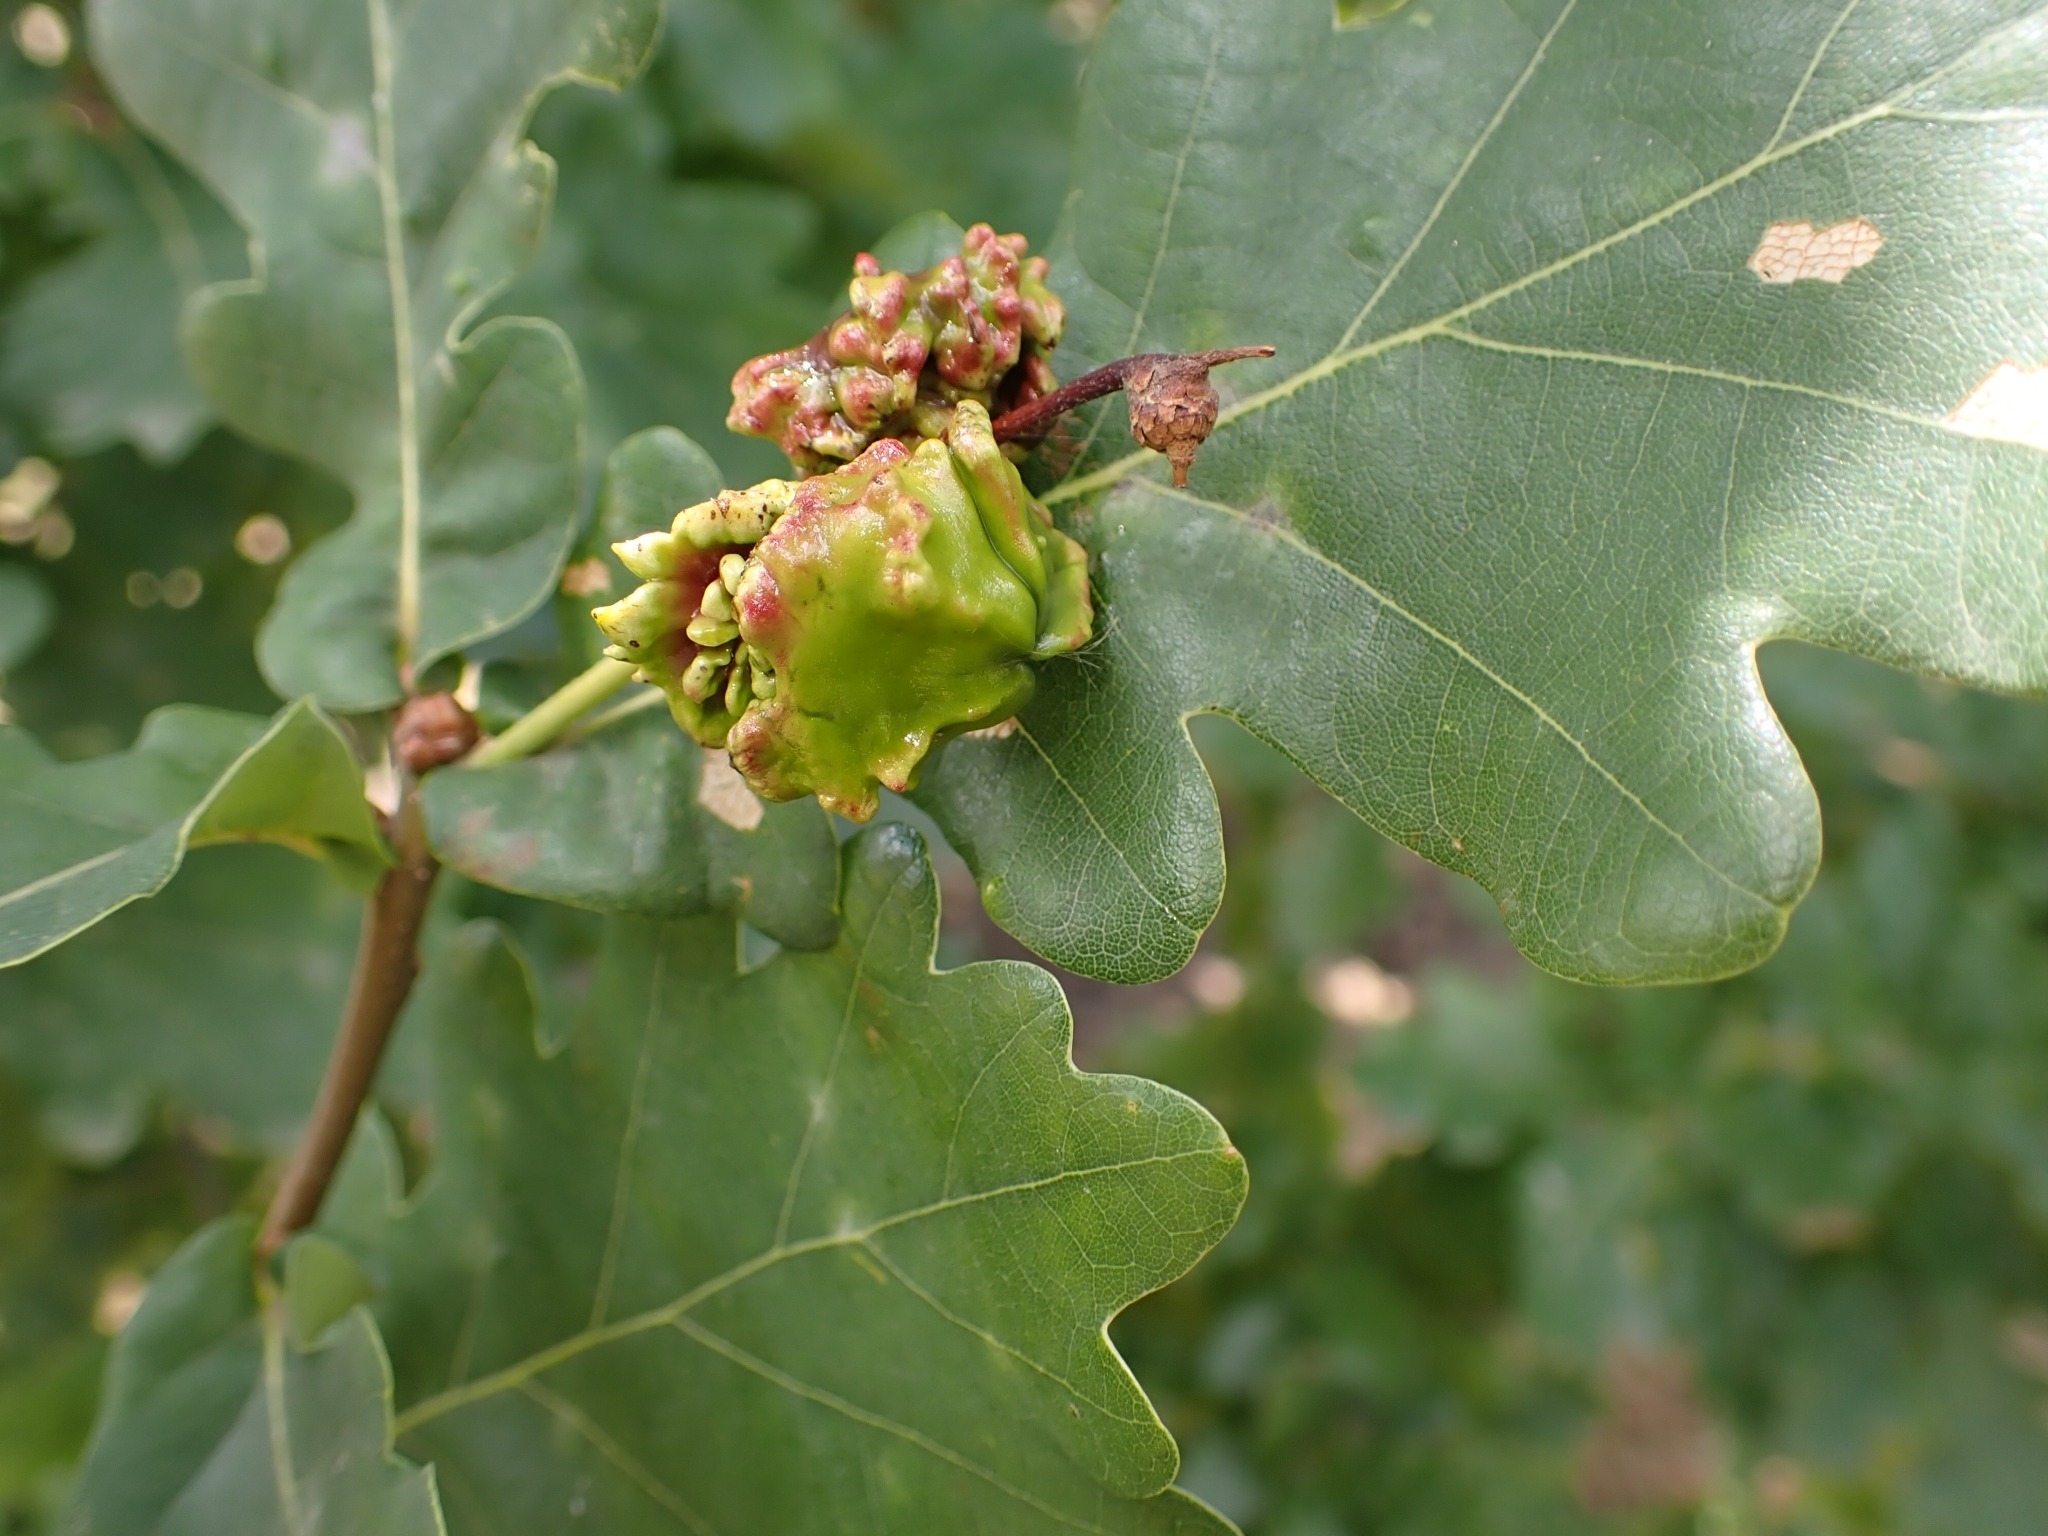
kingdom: Animalia
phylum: Arthropoda
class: Insecta
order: Hymenoptera
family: Cynipidae
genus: Andricus
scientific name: Andricus quercuscalicis
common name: Knopper gall
